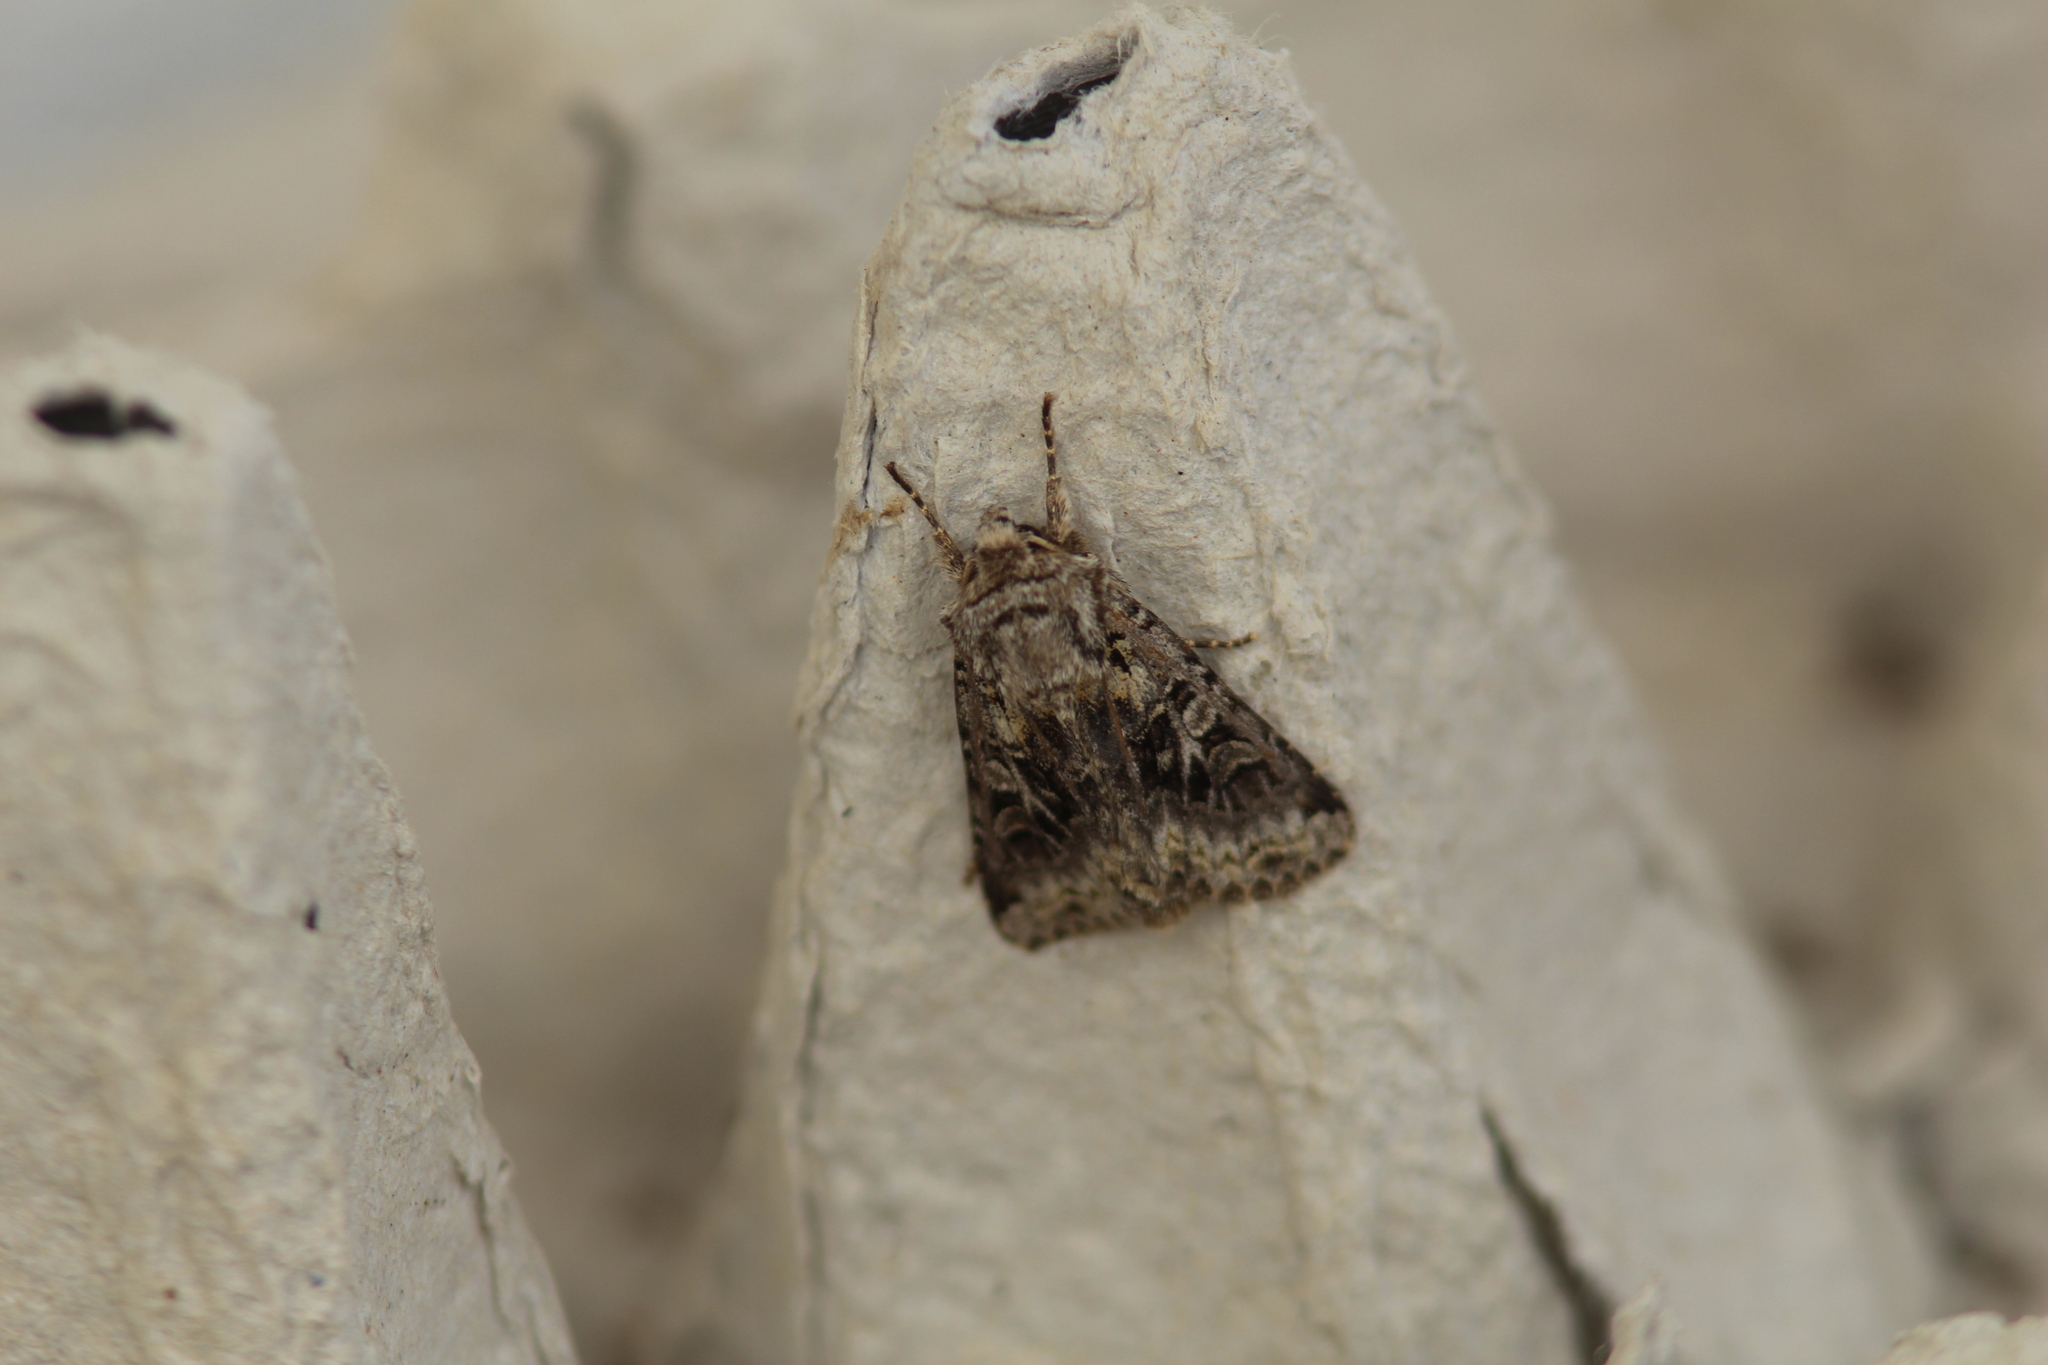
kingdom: Animalia
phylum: Arthropoda
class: Insecta
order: Lepidoptera
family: Noctuidae
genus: Hada
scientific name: Hada plebeja
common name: Shears
